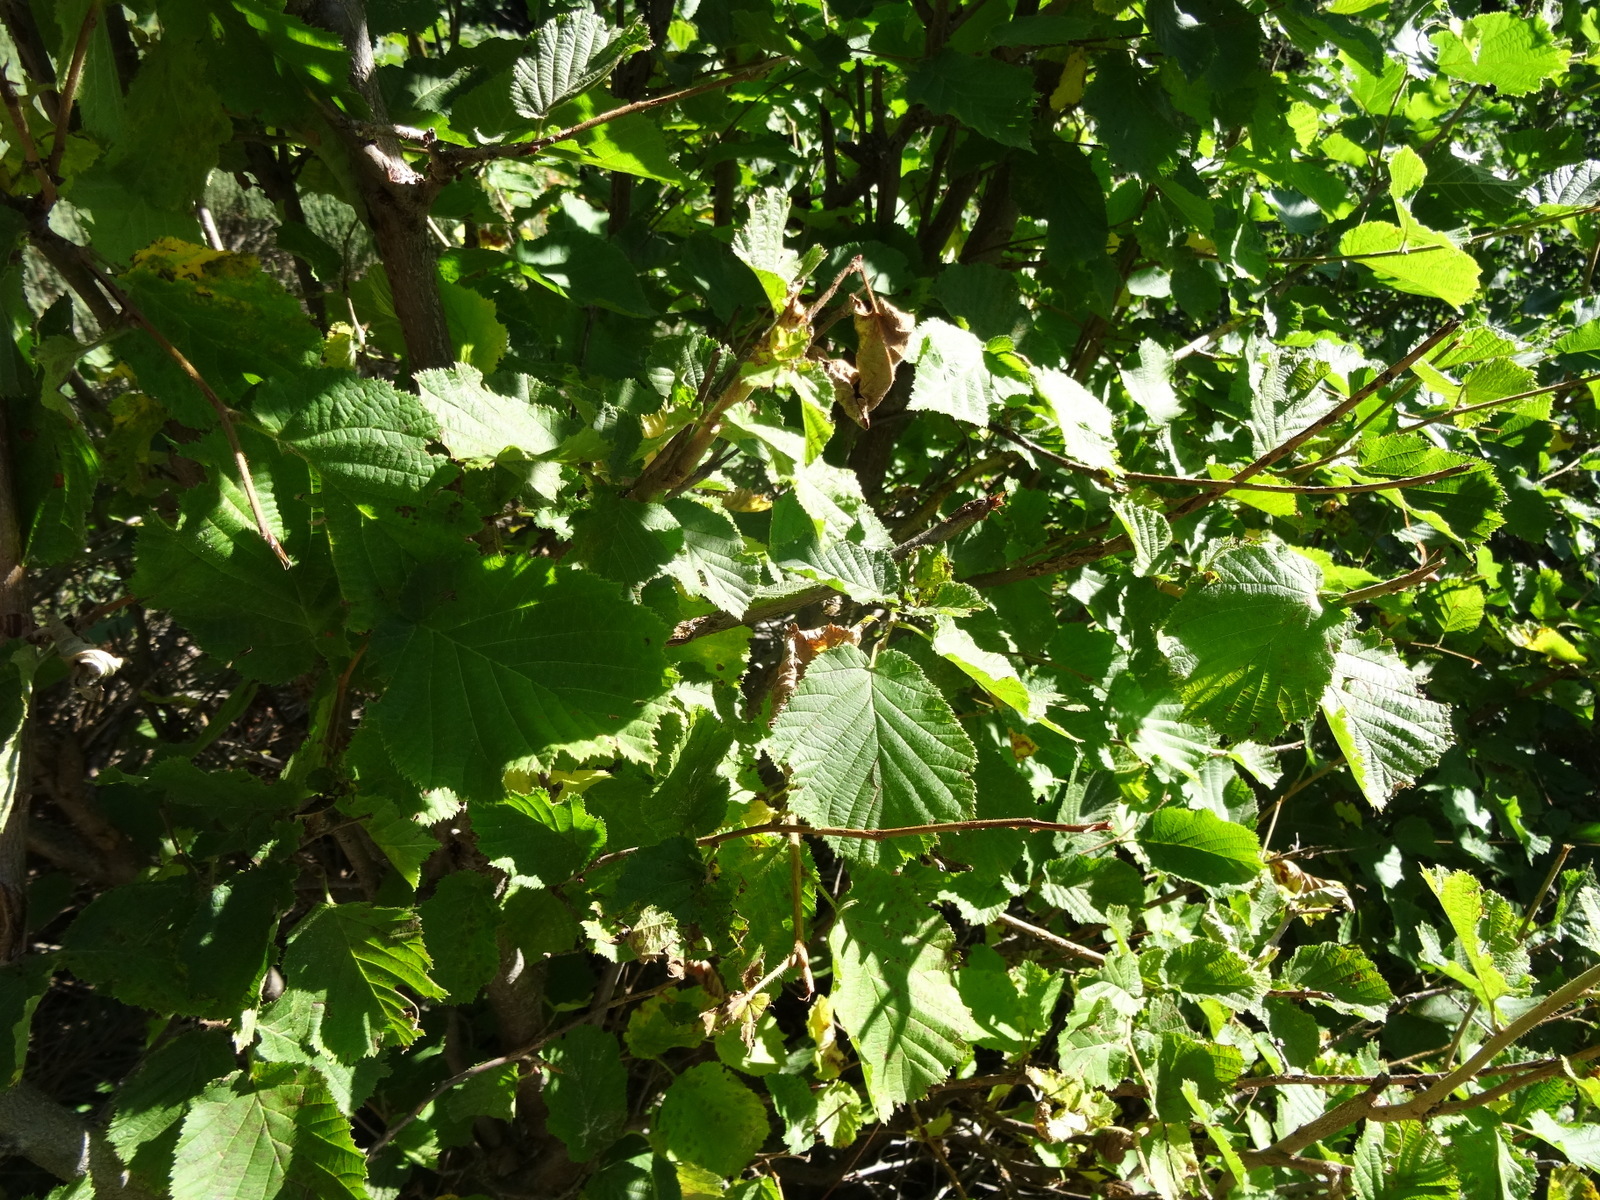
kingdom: Plantae
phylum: Tracheophyta
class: Magnoliopsida
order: Fagales
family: Betulaceae
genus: Corylus
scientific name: Corylus avellana
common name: European hazel
